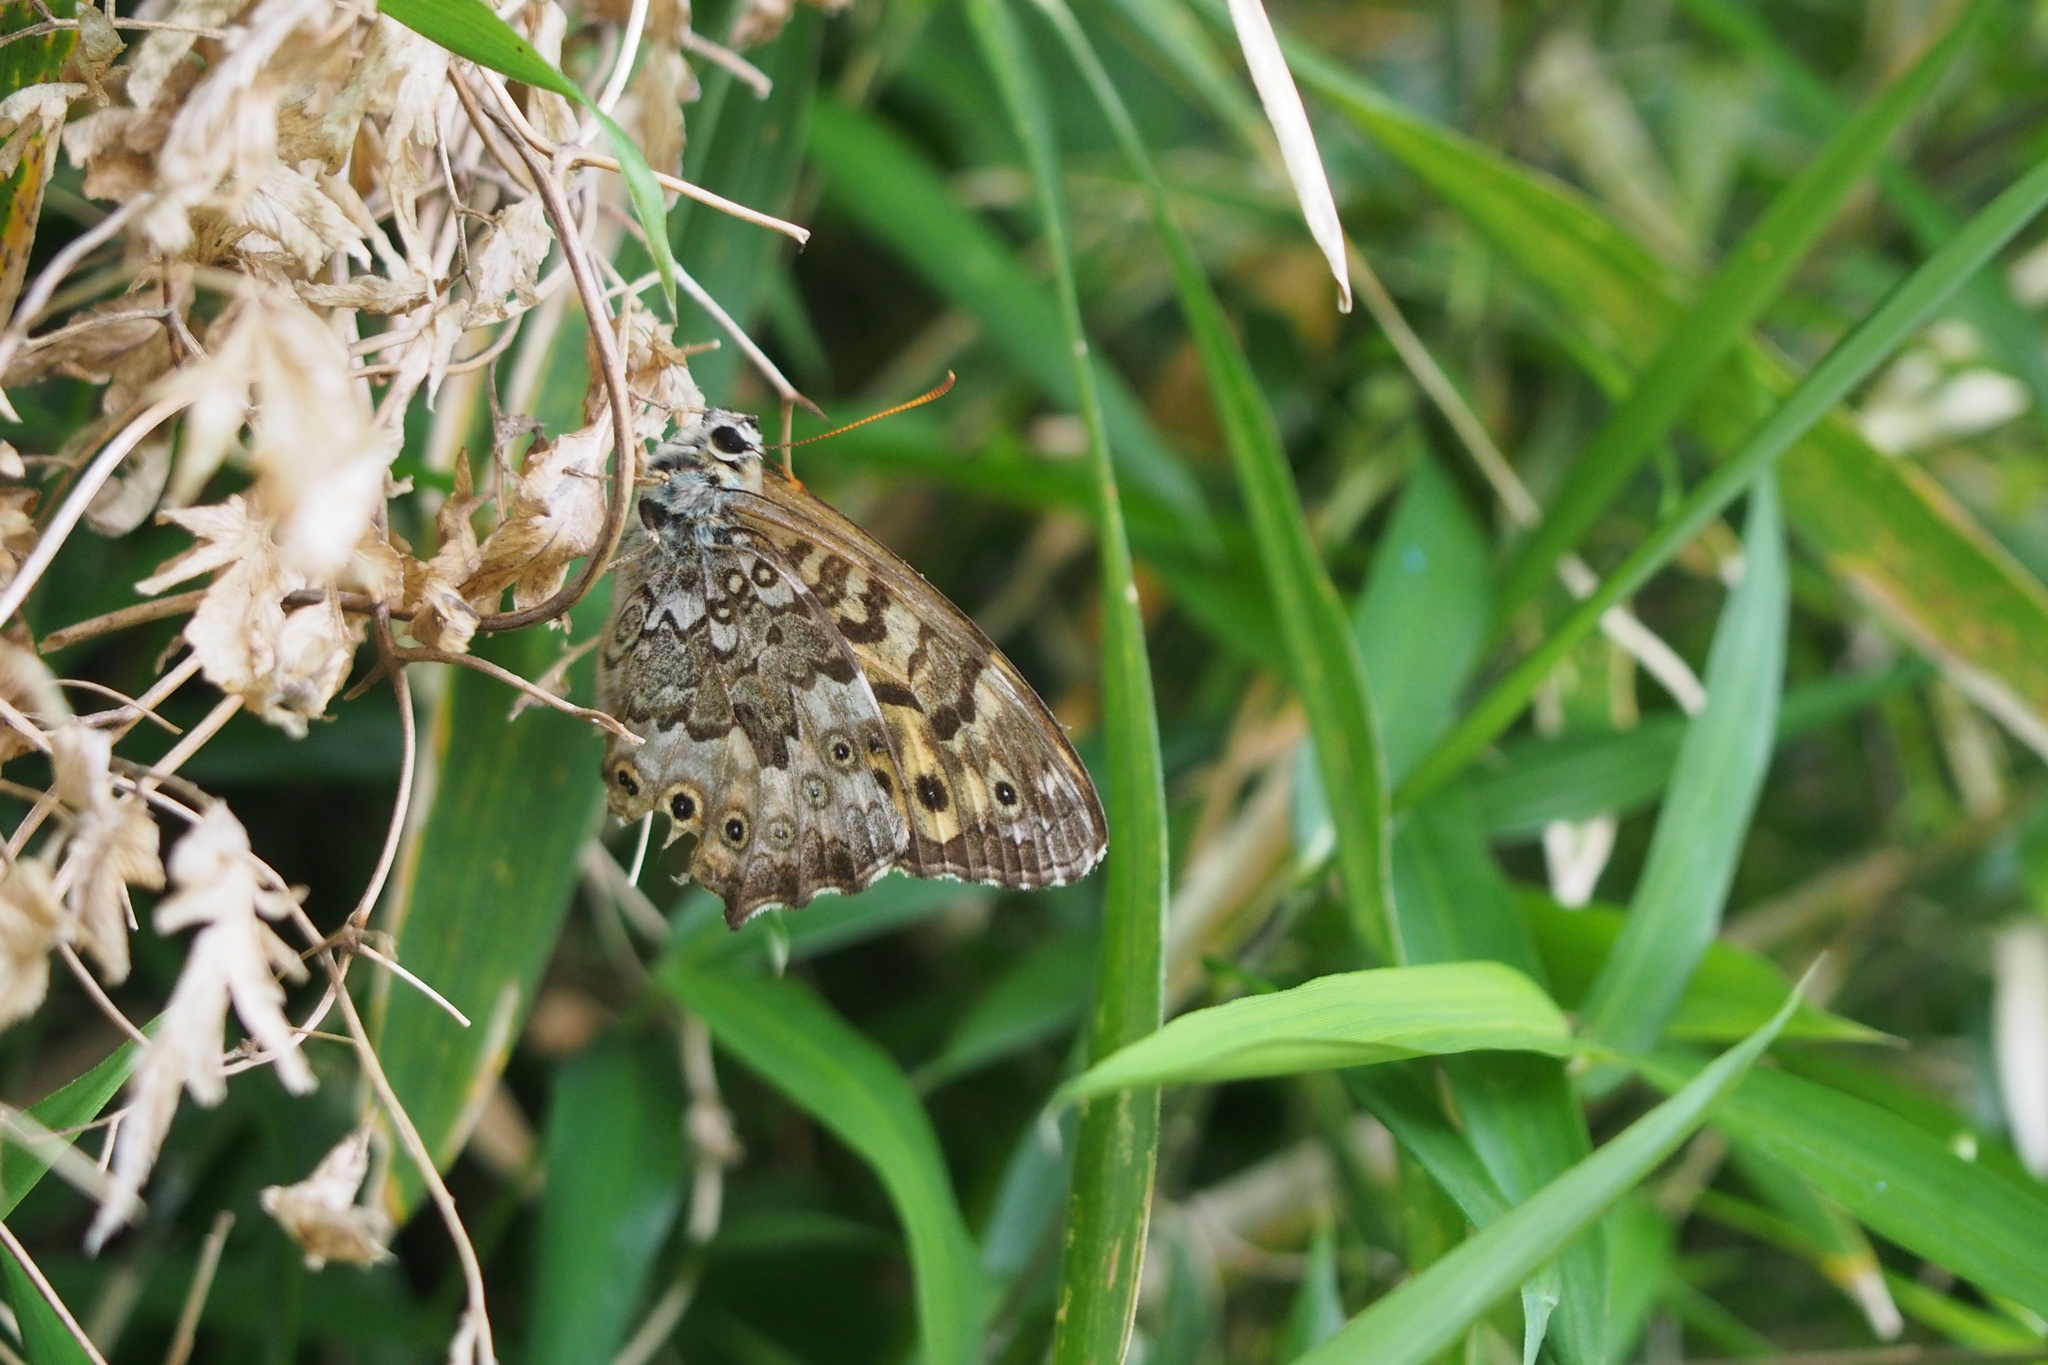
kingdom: Animalia
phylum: Arthropoda
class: Insecta
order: Lepidoptera
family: Nymphalidae
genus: Neope
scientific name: Neope goschkevitschii
